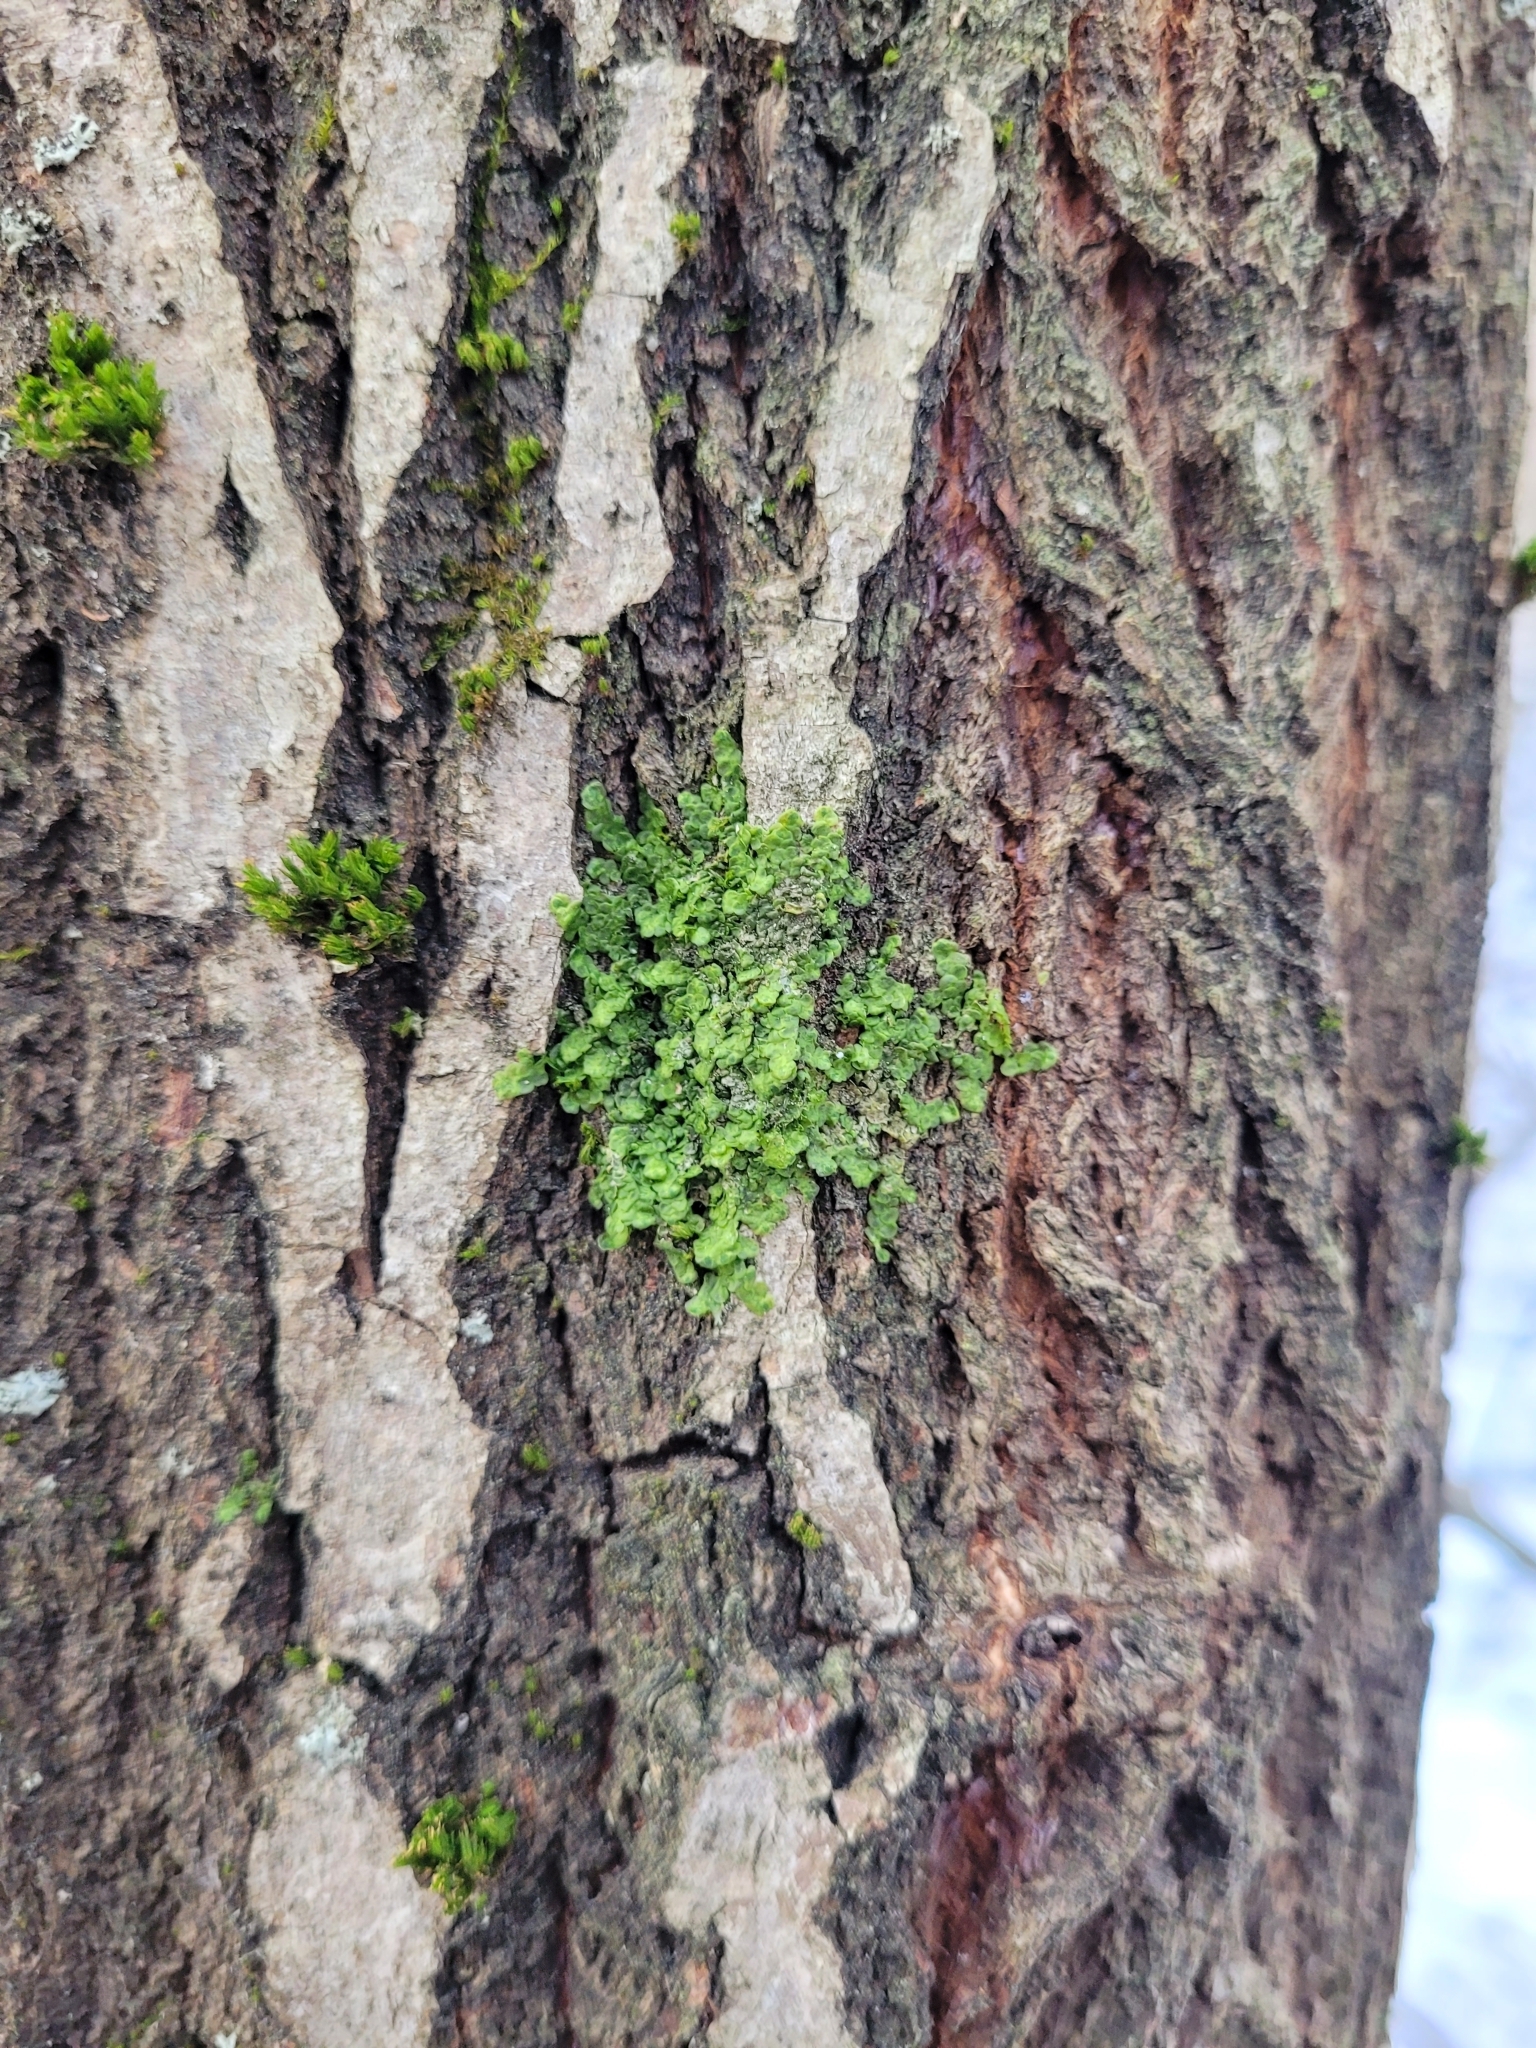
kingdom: Plantae
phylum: Marchantiophyta
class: Jungermanniopsida
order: Porellales
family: Radulaceae
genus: Radula
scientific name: Radula complanata
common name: Flat-leaved scalewort
